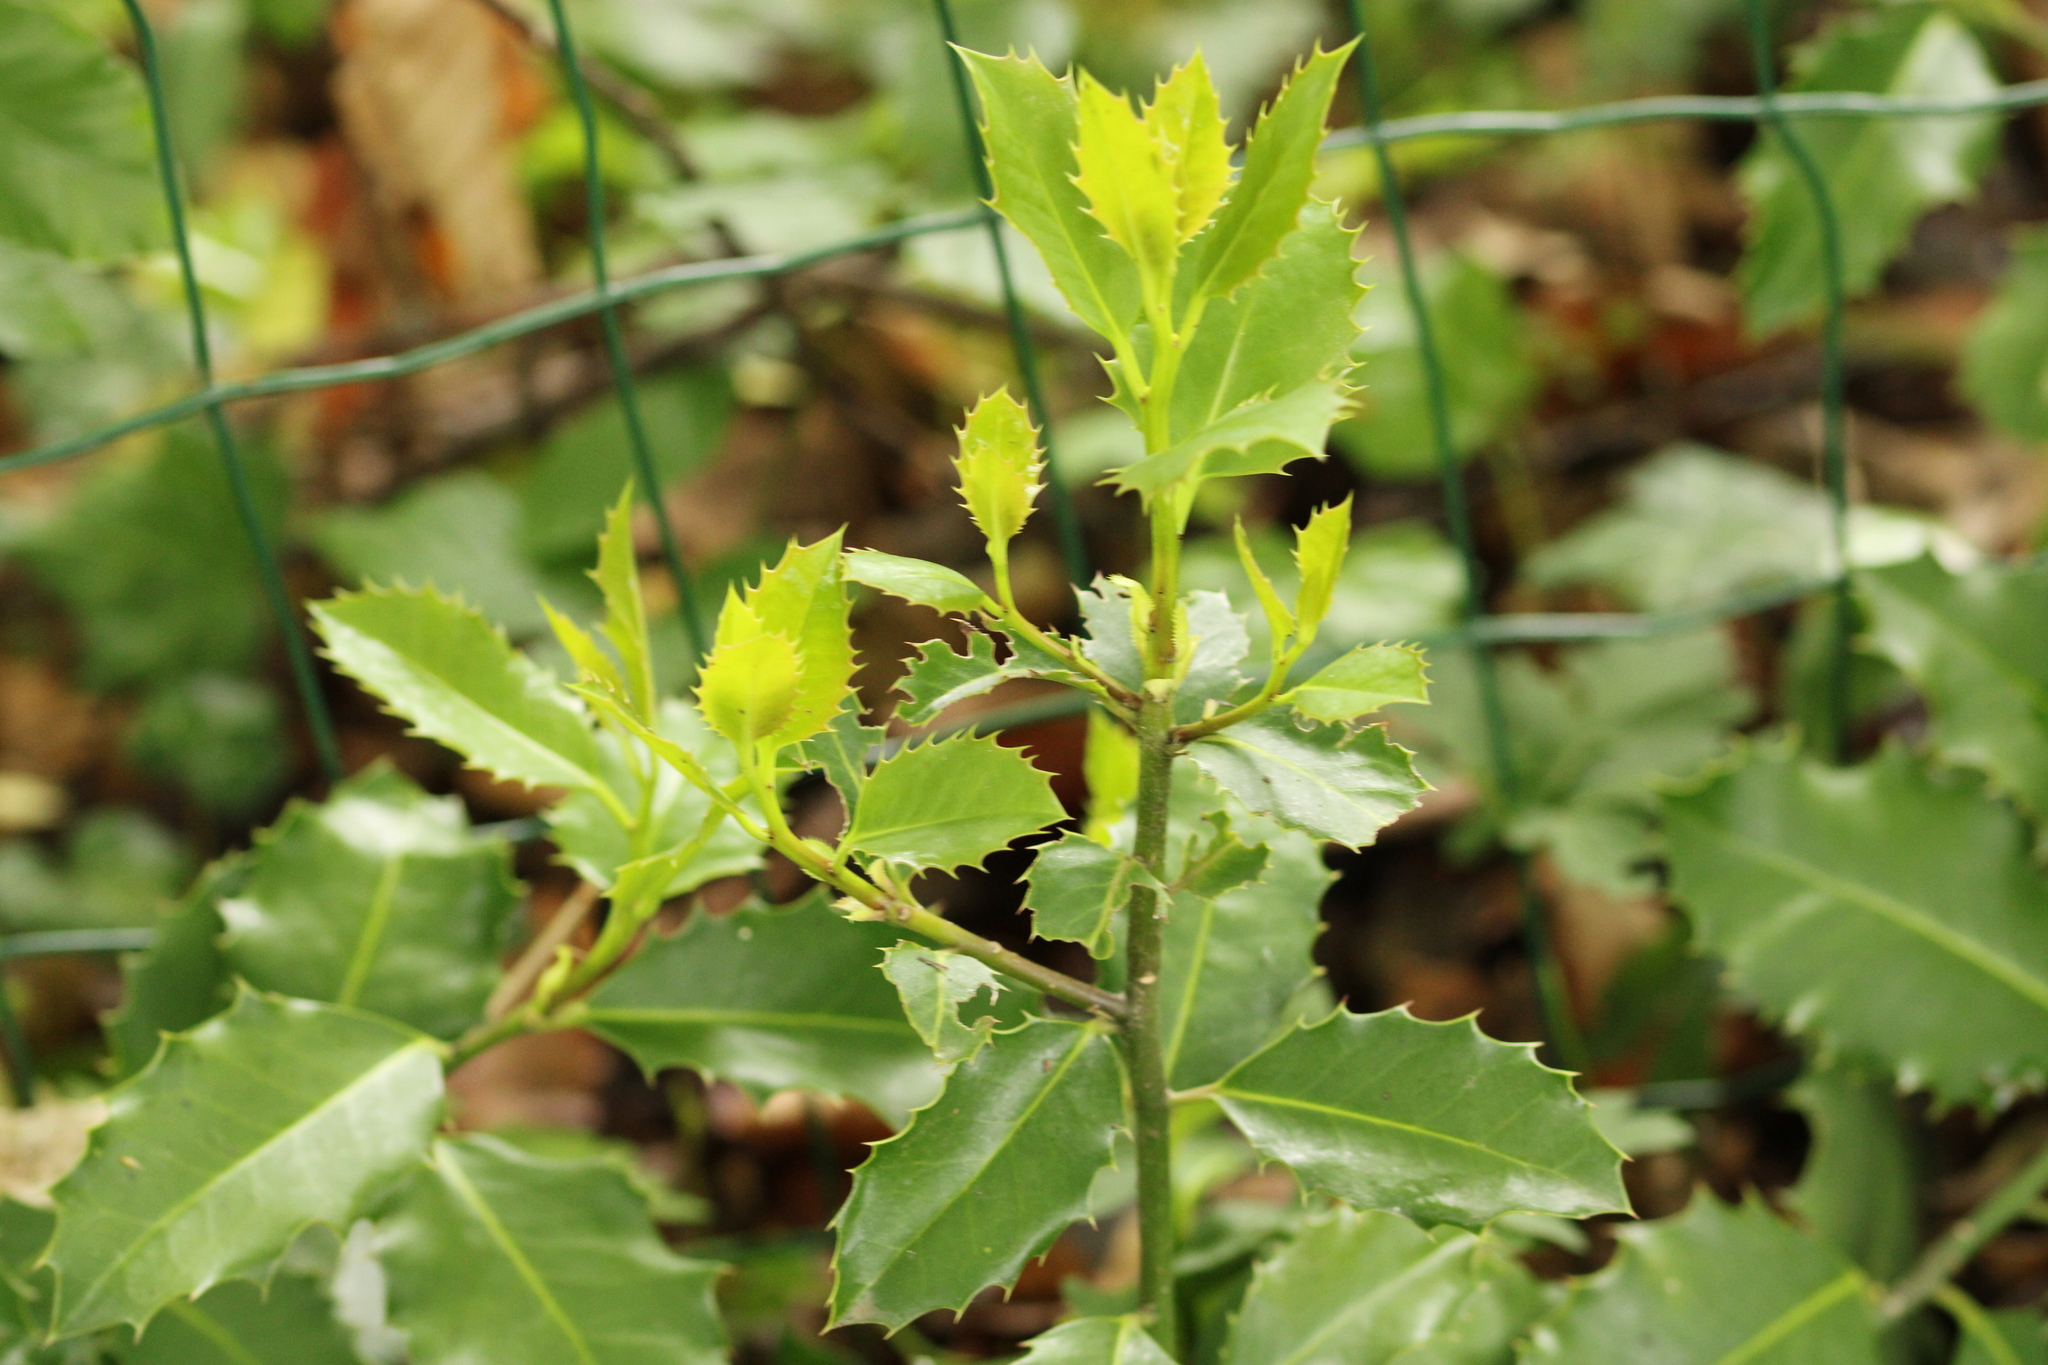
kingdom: Plantae
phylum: Tracheophyta
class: Magnoliopsida
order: Aquifoliales
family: Aquifoliaceae
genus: Ilex
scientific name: Ilex aquifolium
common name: English holly
